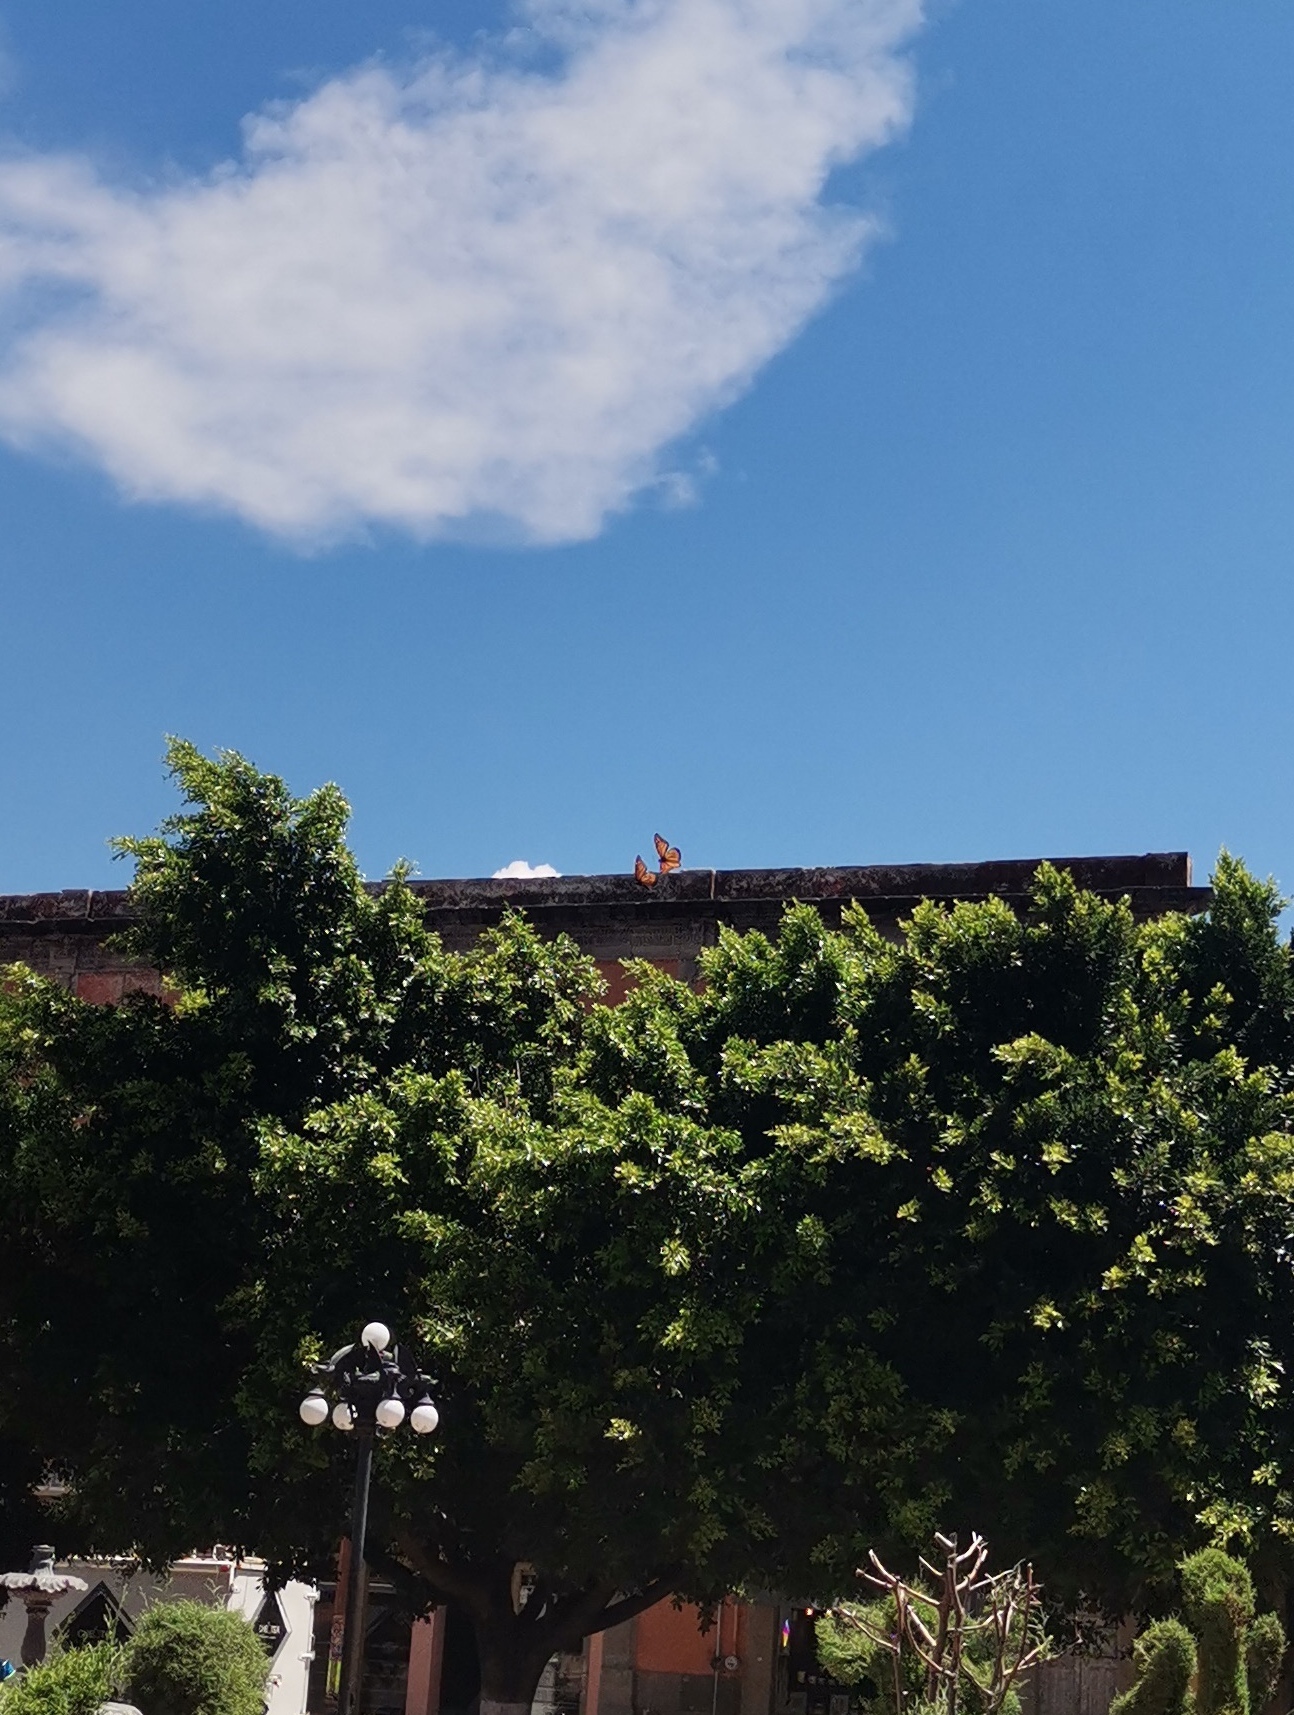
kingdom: Animalia
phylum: Arthropoda
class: Insecta
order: Lepidoptera
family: Nymphalidae
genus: Danaus
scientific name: Danaus plexippus
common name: Monarch
